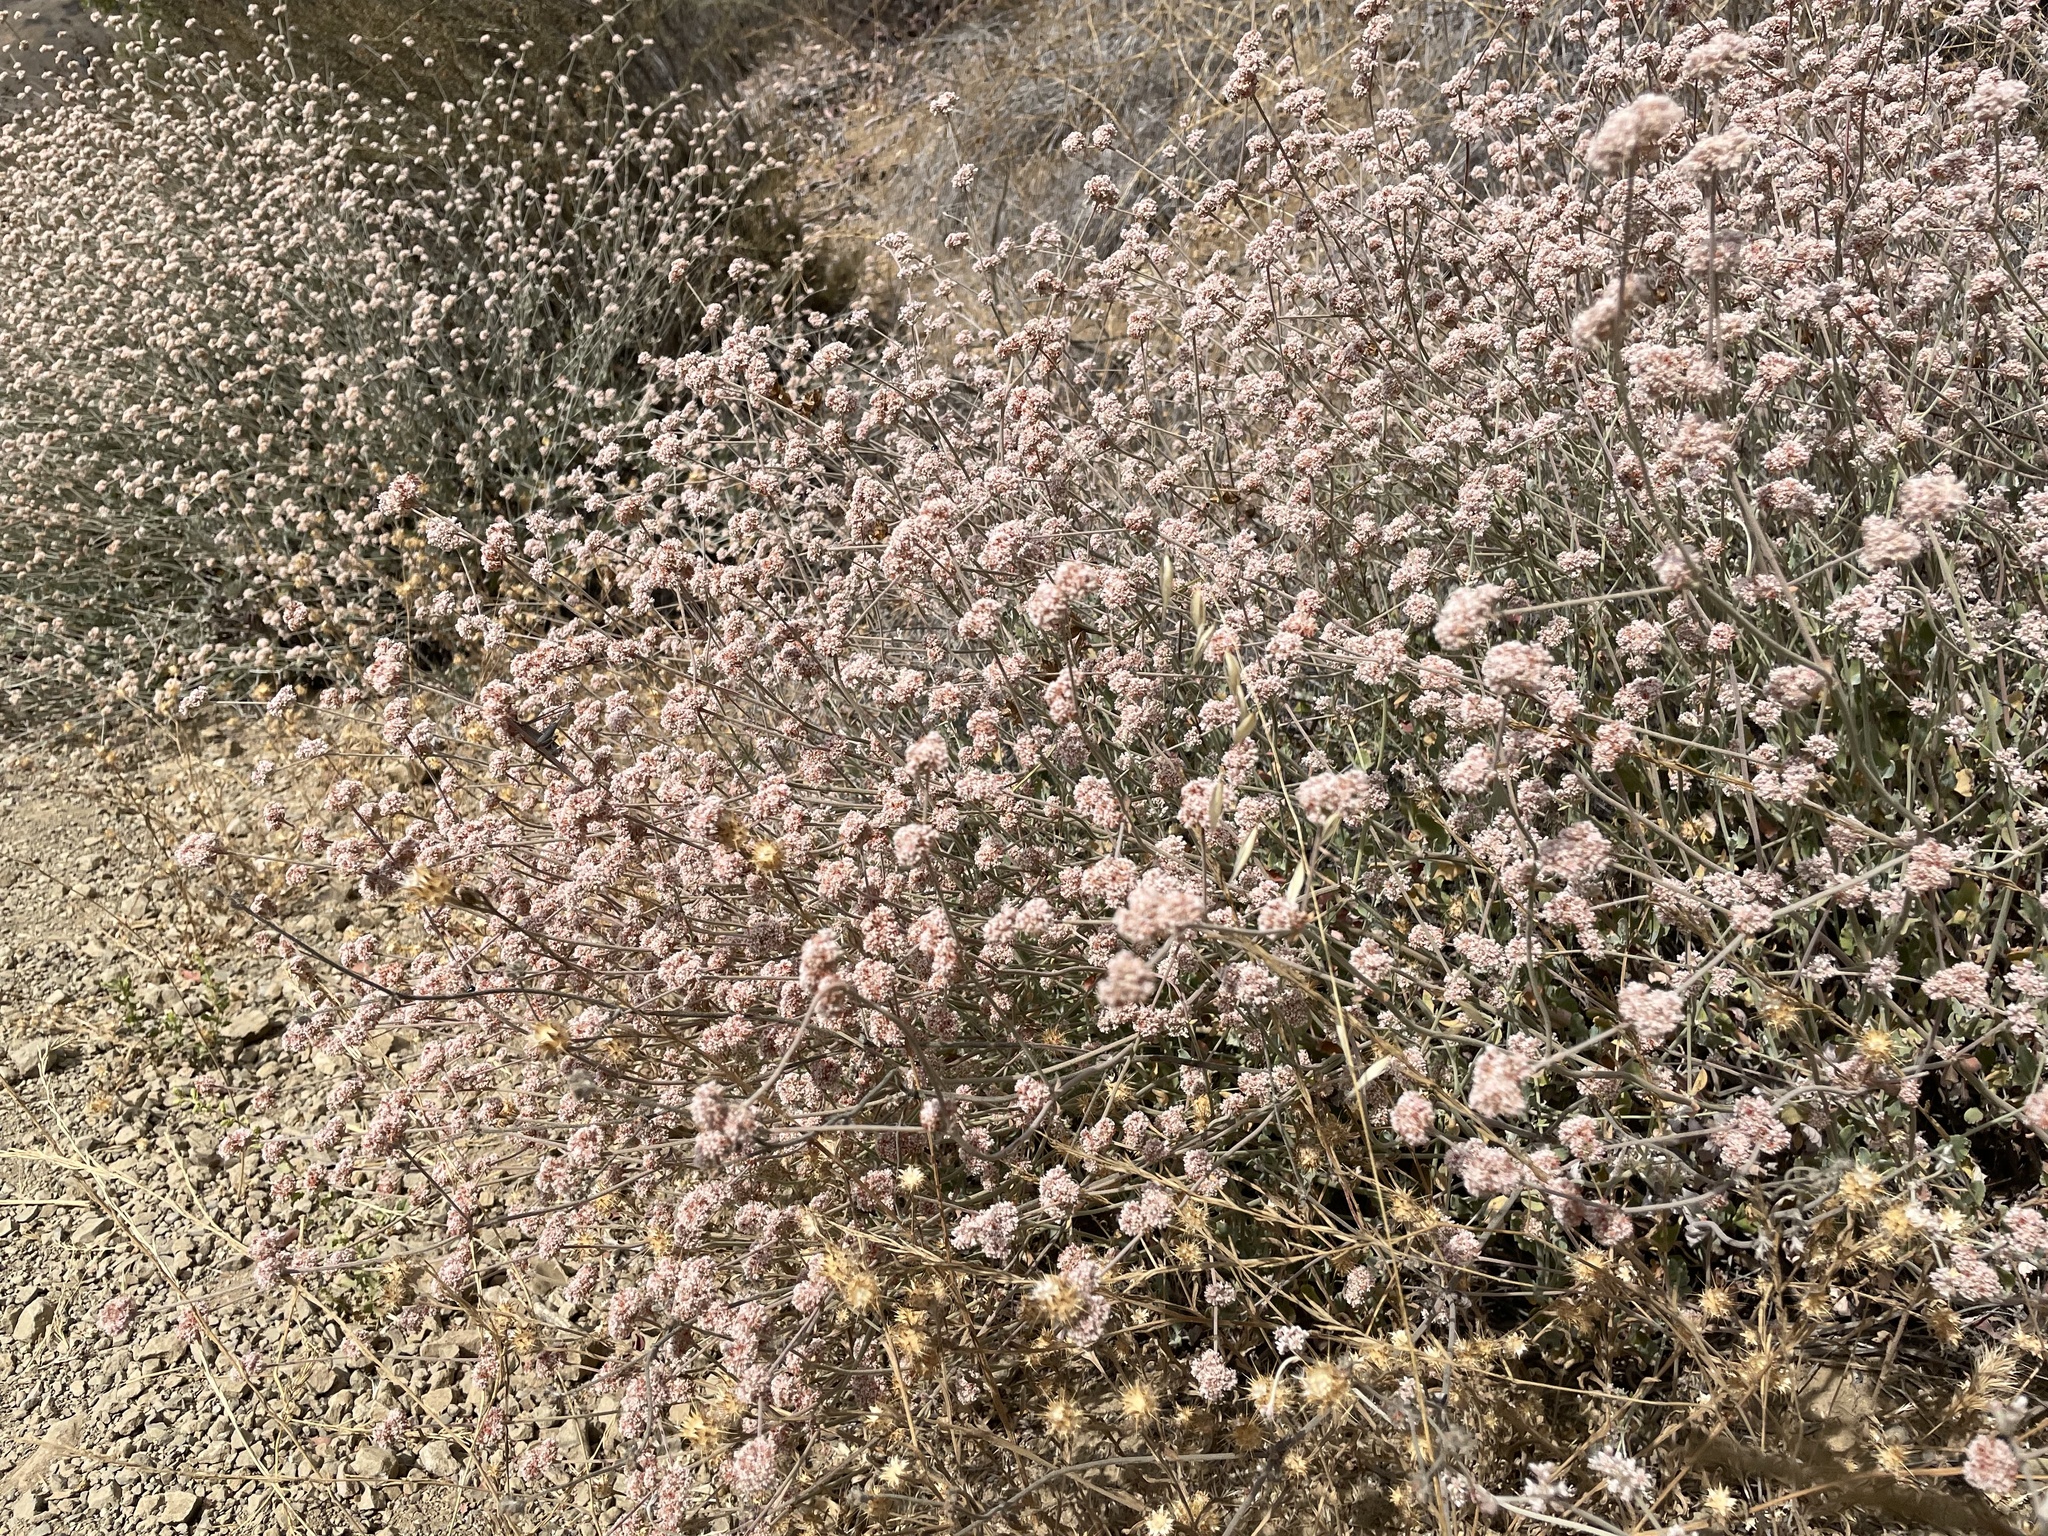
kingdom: Plantae
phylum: Tracheophyta
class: Magnoliopsida
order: Caryophyllales
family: Polygonaceae
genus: Eriogonum
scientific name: Eriogonum cinereum
